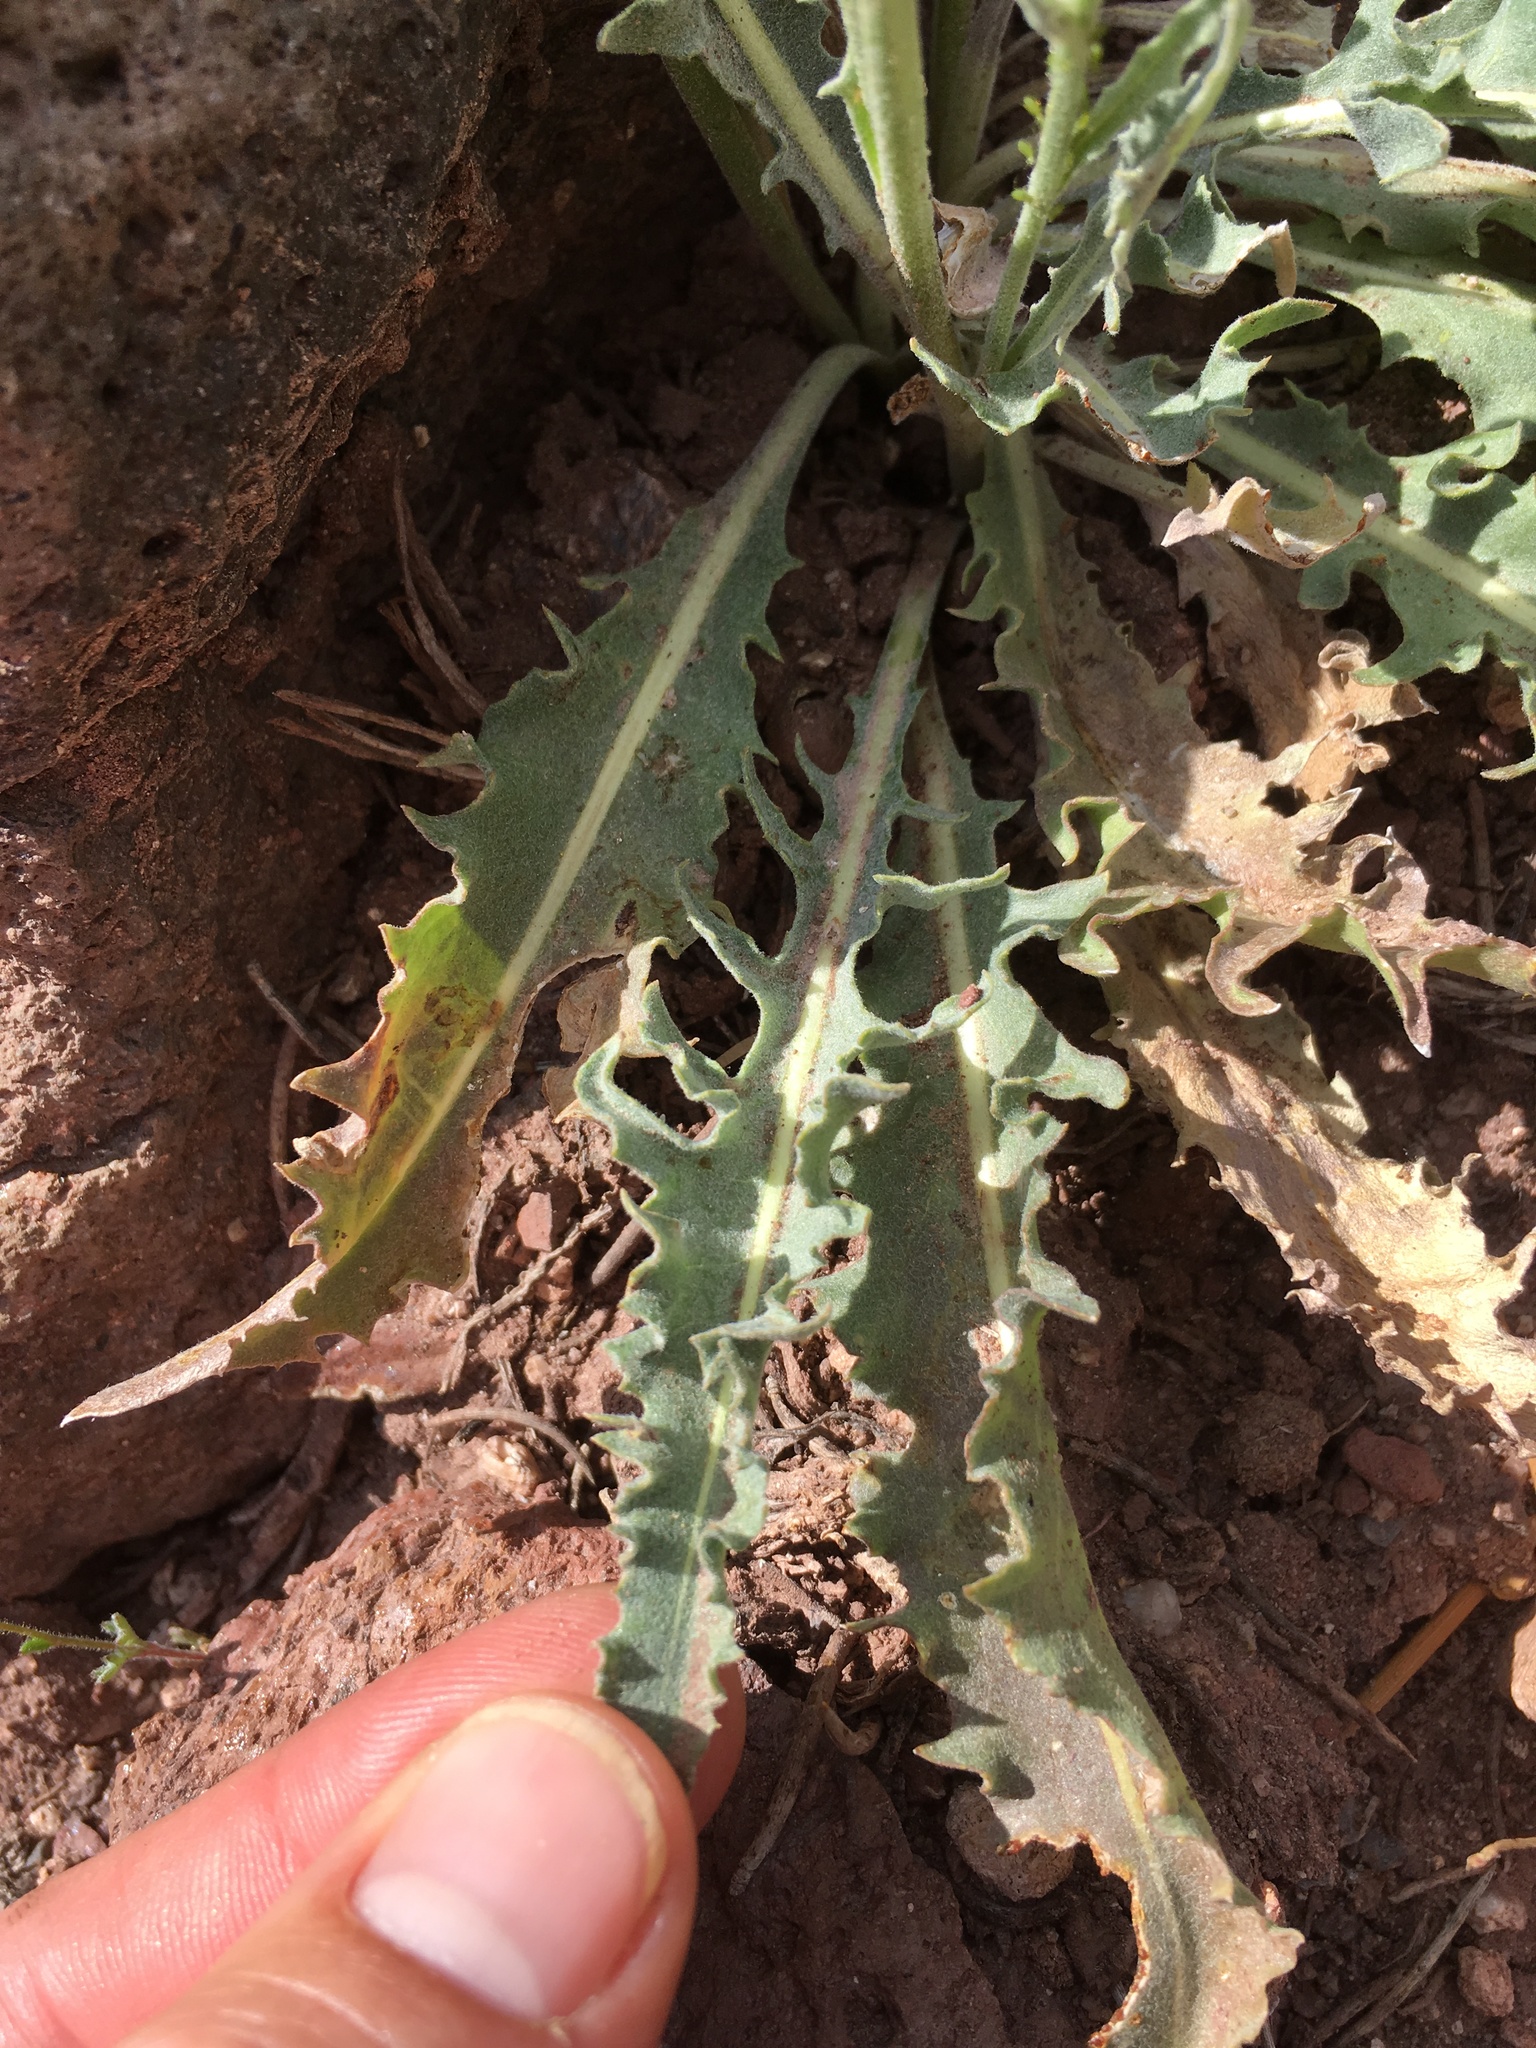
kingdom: Plantae
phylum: Tracheophyta
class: Magnoliopsida
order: Asterales
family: Asteraceae
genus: Crepis
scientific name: Crepis occidentalis
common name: Gray hawk's-beard
